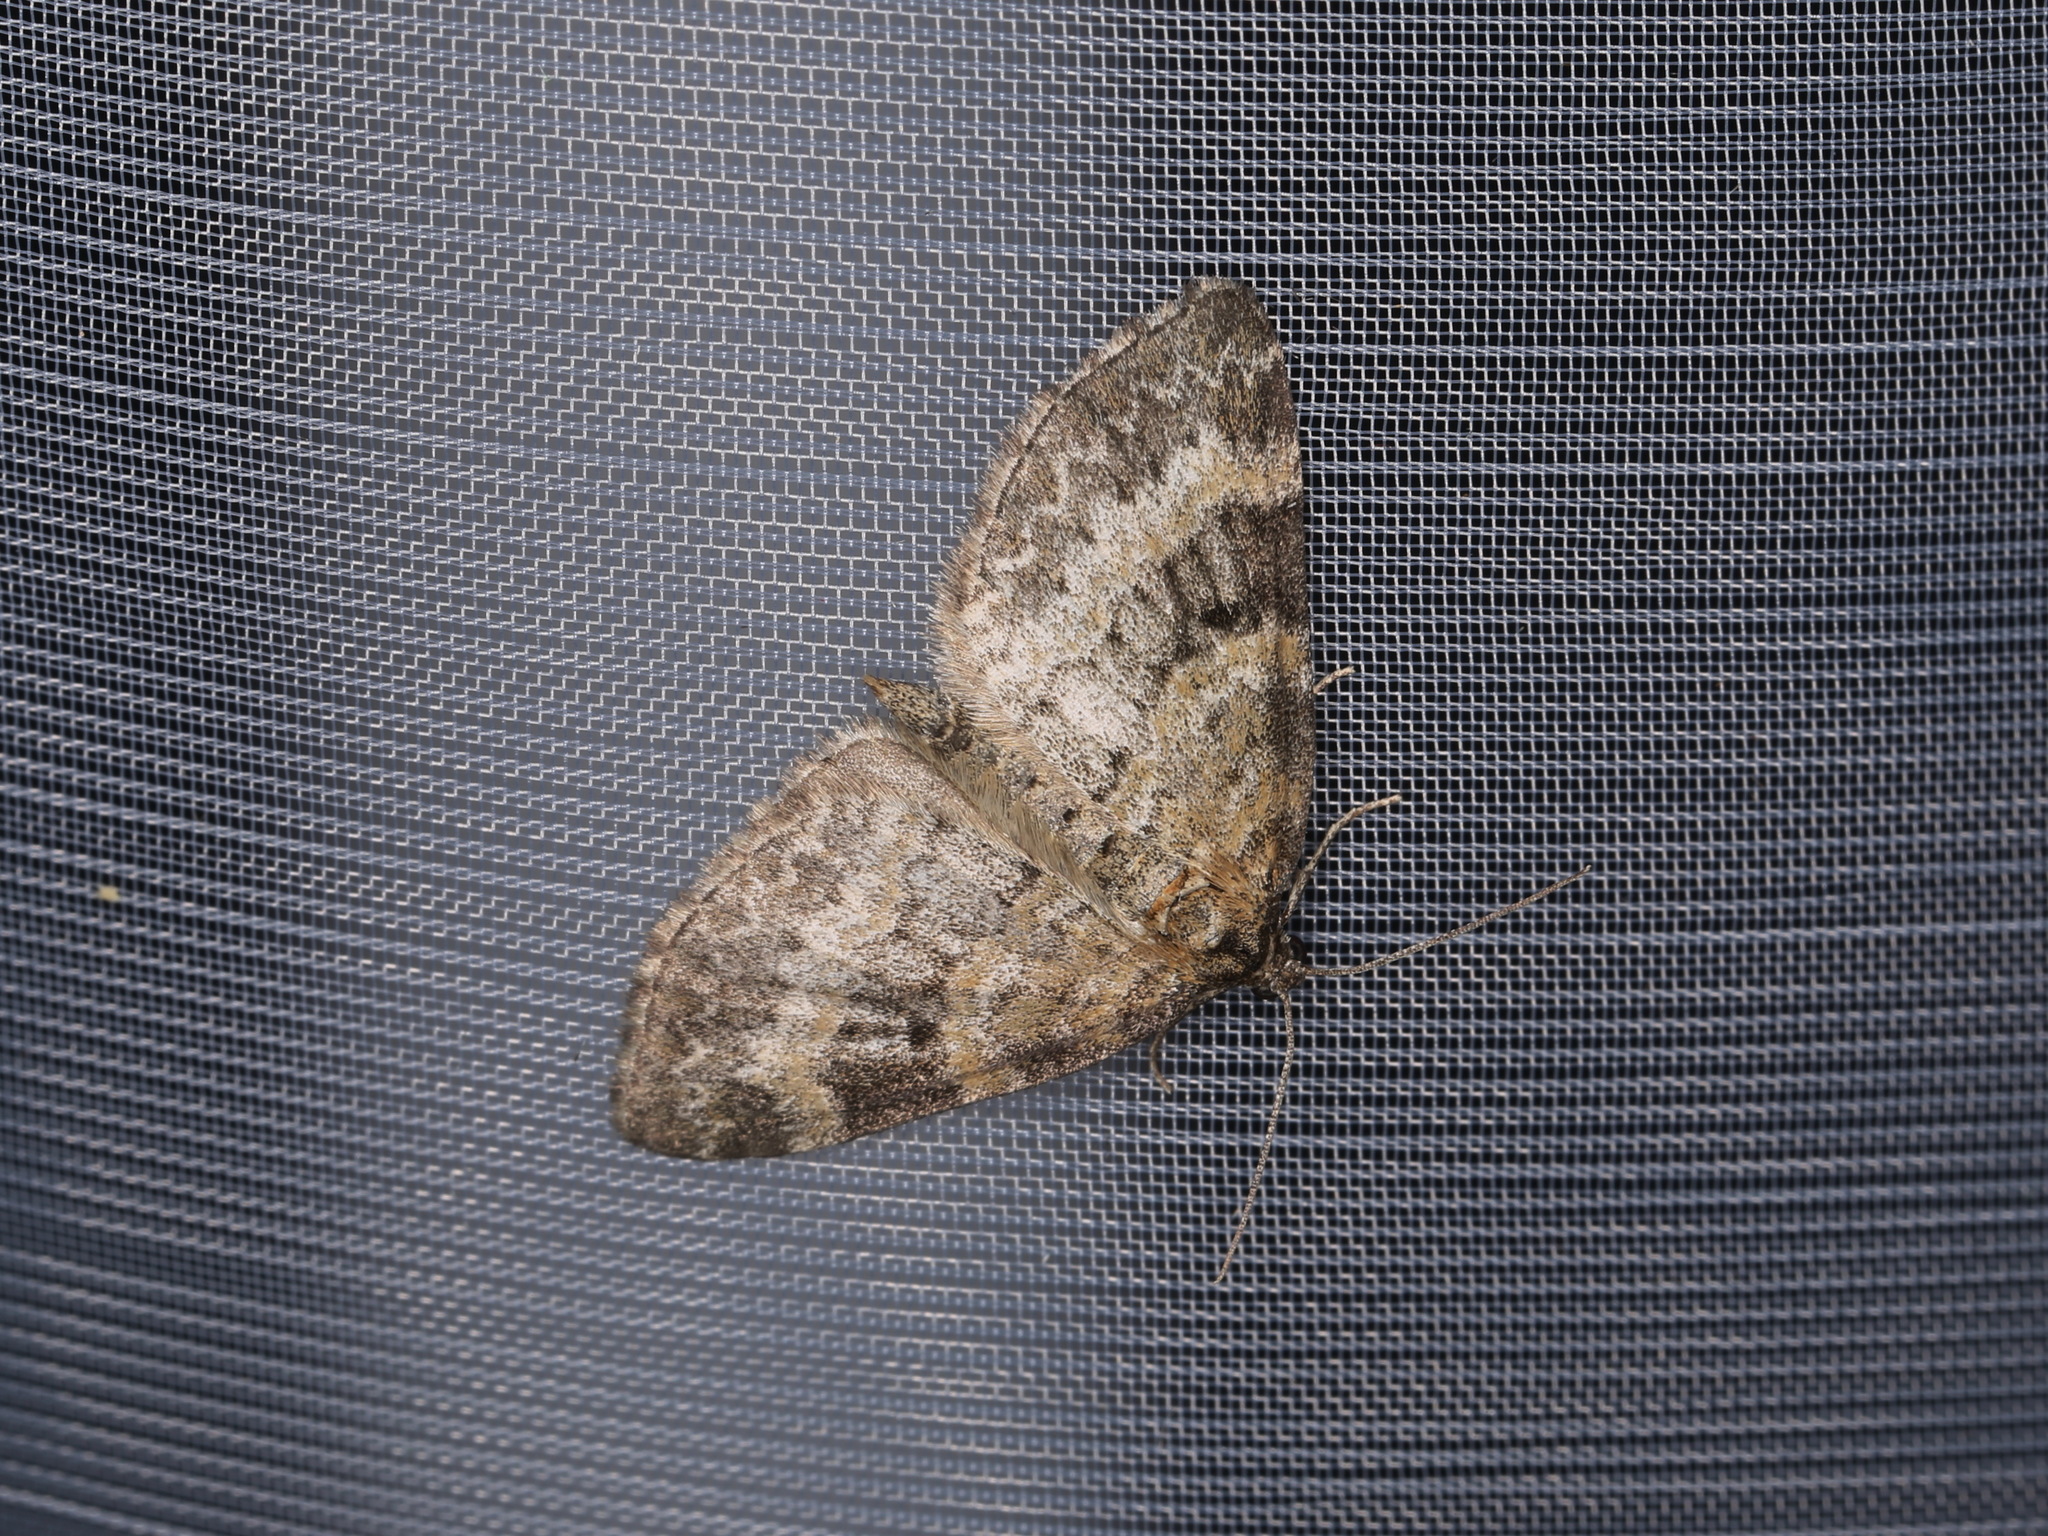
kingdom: Animalia
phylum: Arthropoda
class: Insecta
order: Lepidoptera
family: Geometridae
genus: Pterapherapteryx
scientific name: Pterapherapteryx sexalata
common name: Small seraphim
